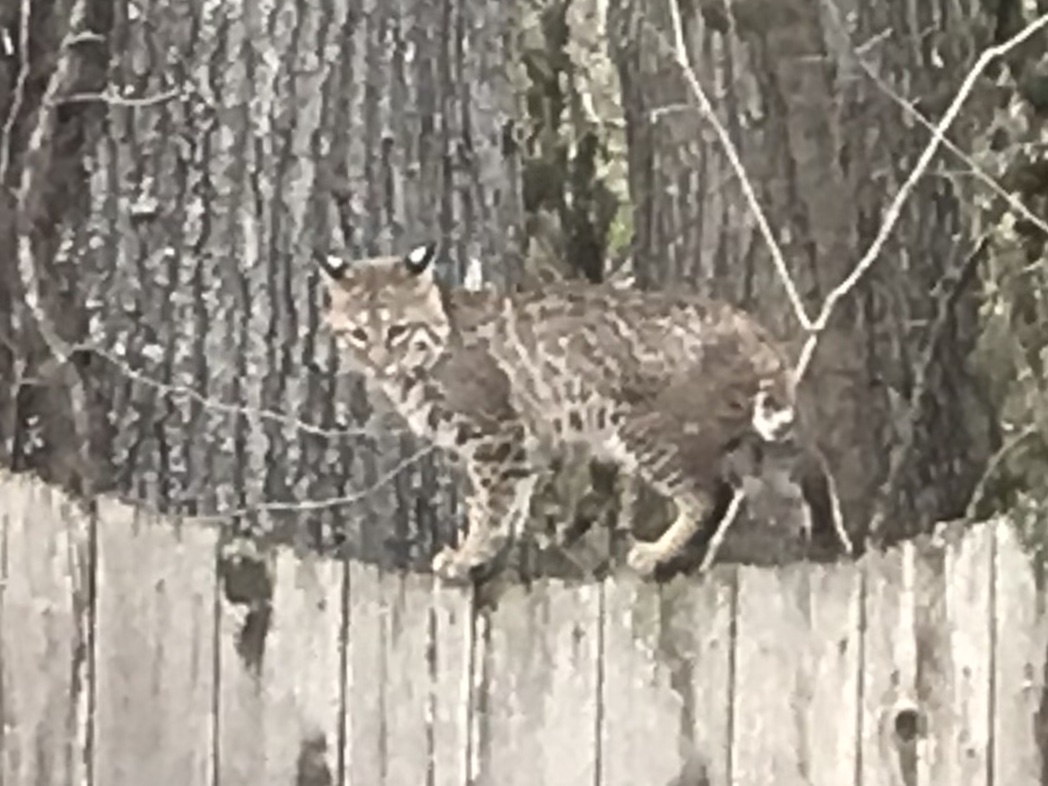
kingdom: Animalia
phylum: Chordata
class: Mammalia
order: Carnivora
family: Felidae
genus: Lynx
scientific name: Lynx rufus
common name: Bobcat
